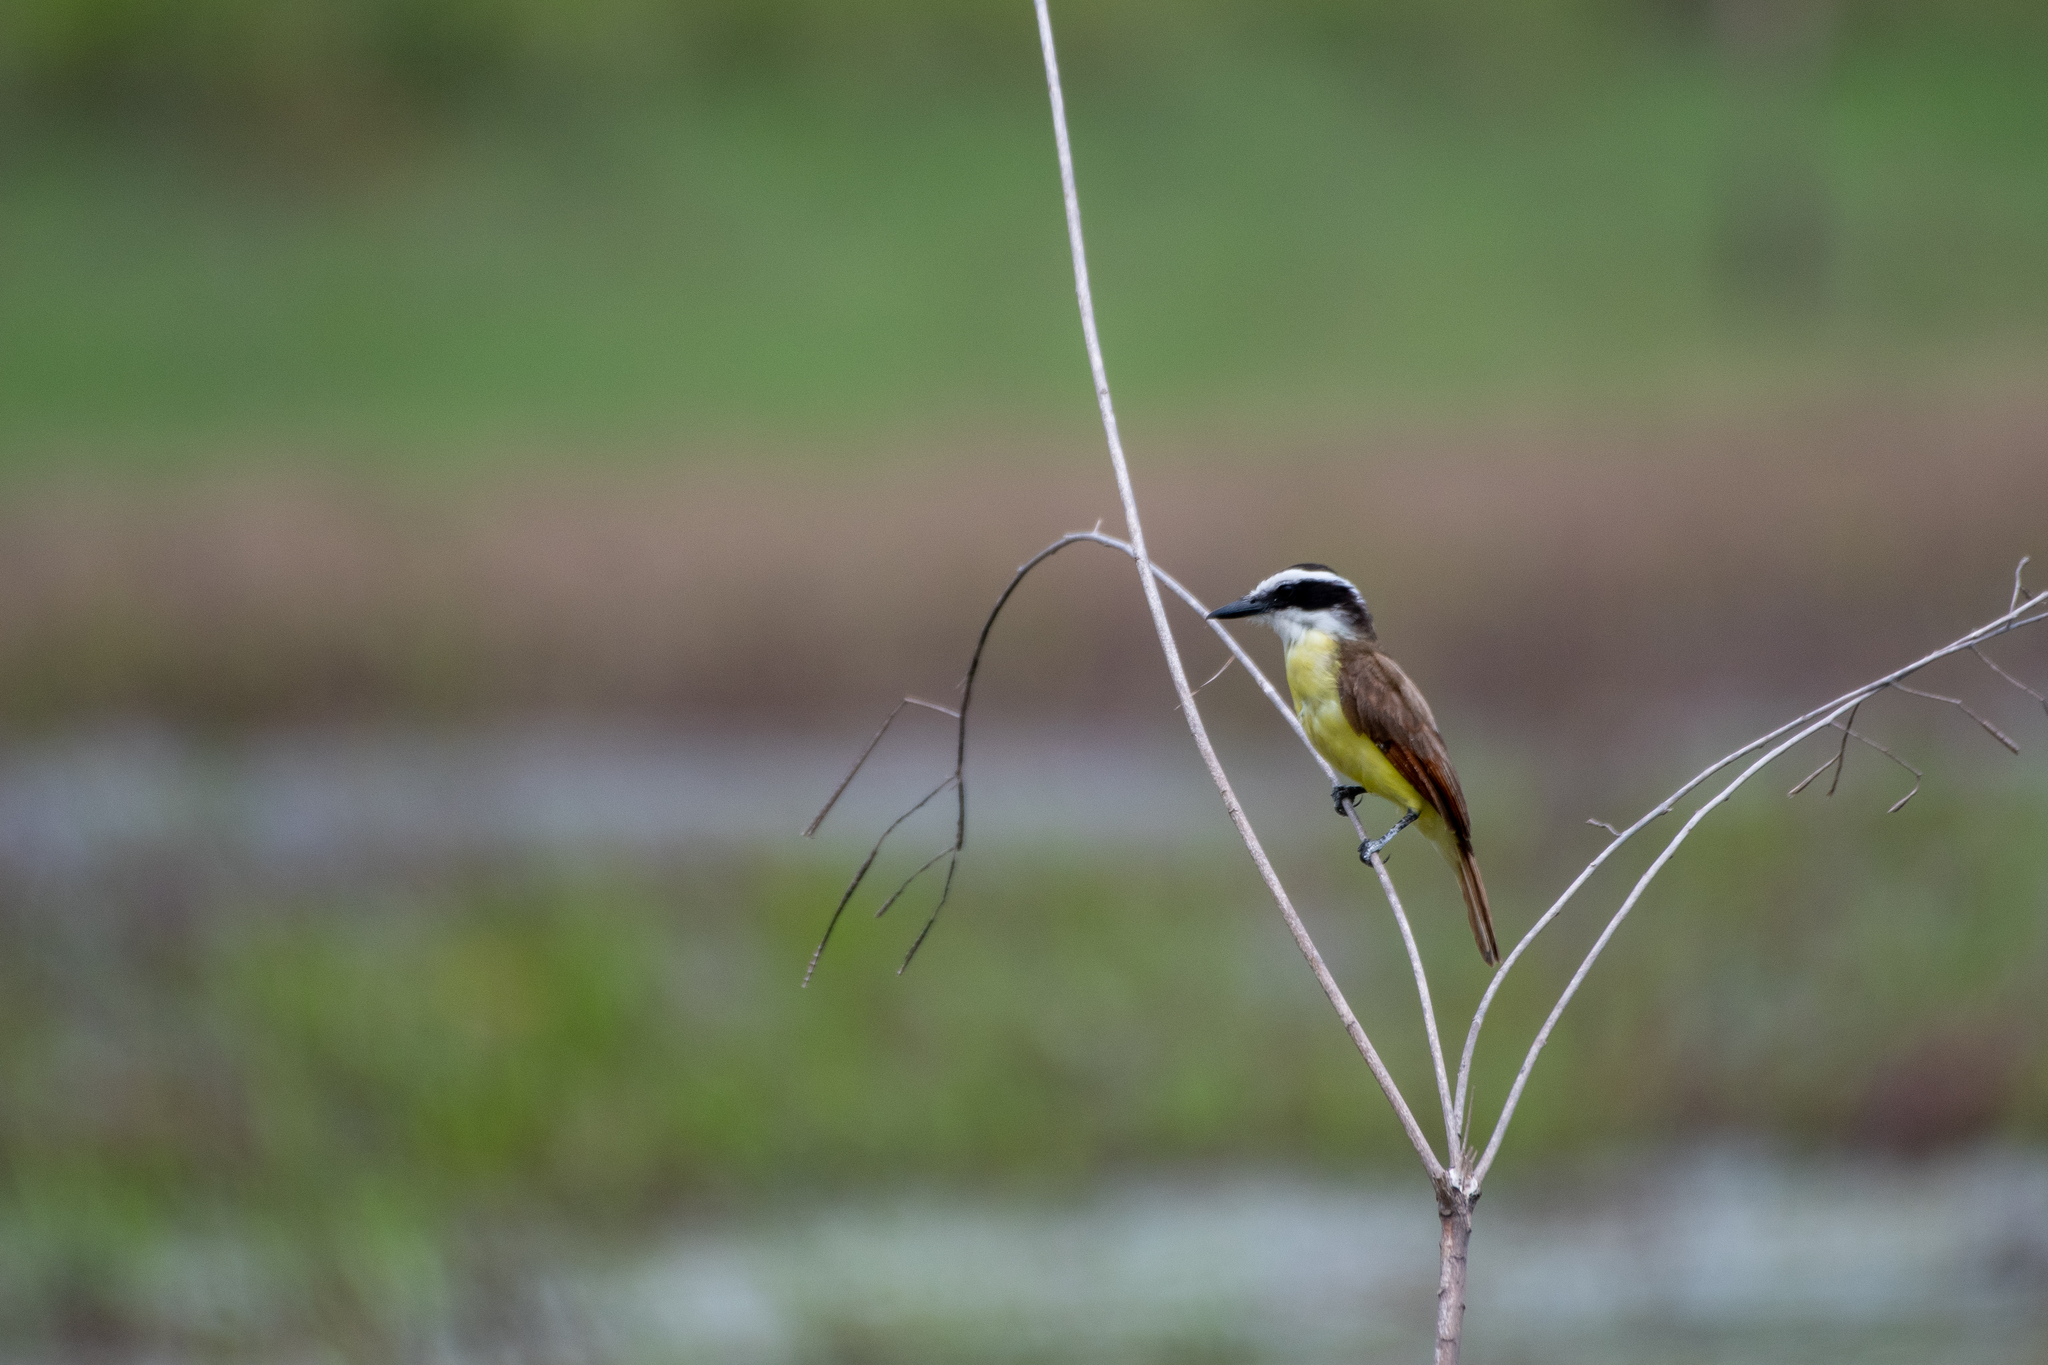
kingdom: Animalia
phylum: Chordata
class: Aves
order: Passeriformes
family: Tyrannidae
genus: Pitangus
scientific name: Pitangus sulphuratus
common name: Great kiskadee
